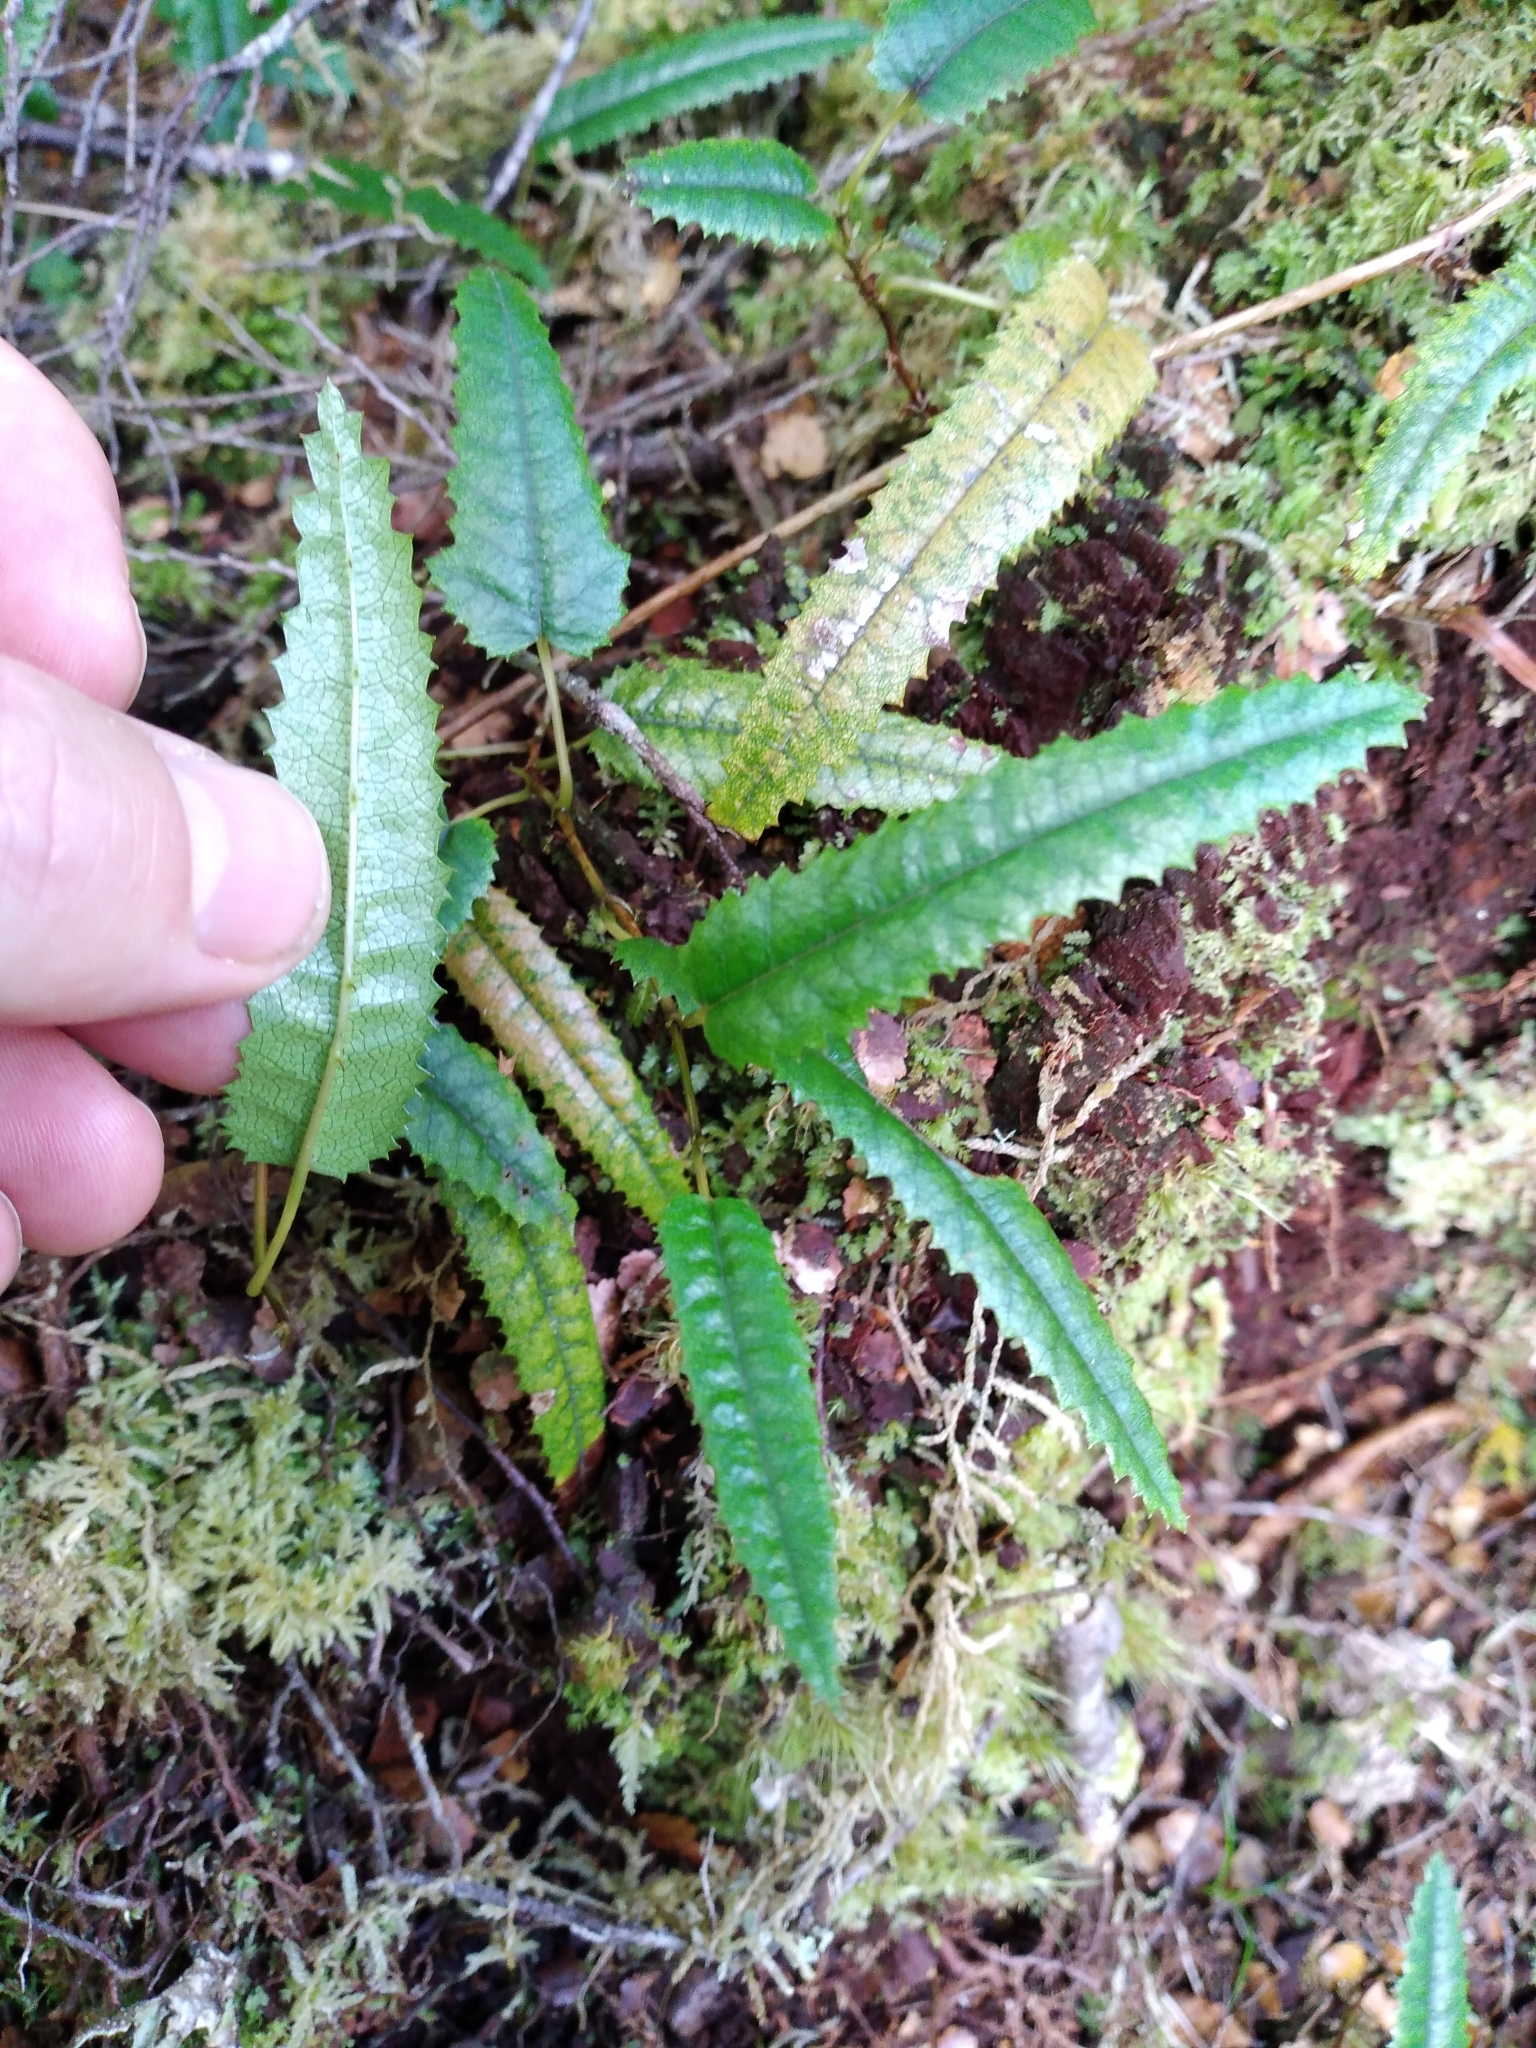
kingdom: Plantae
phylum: Tracheophyta
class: Magnoliopsida
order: Rosales
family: Rosaceae
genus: Rubus
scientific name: Rubus parvus
